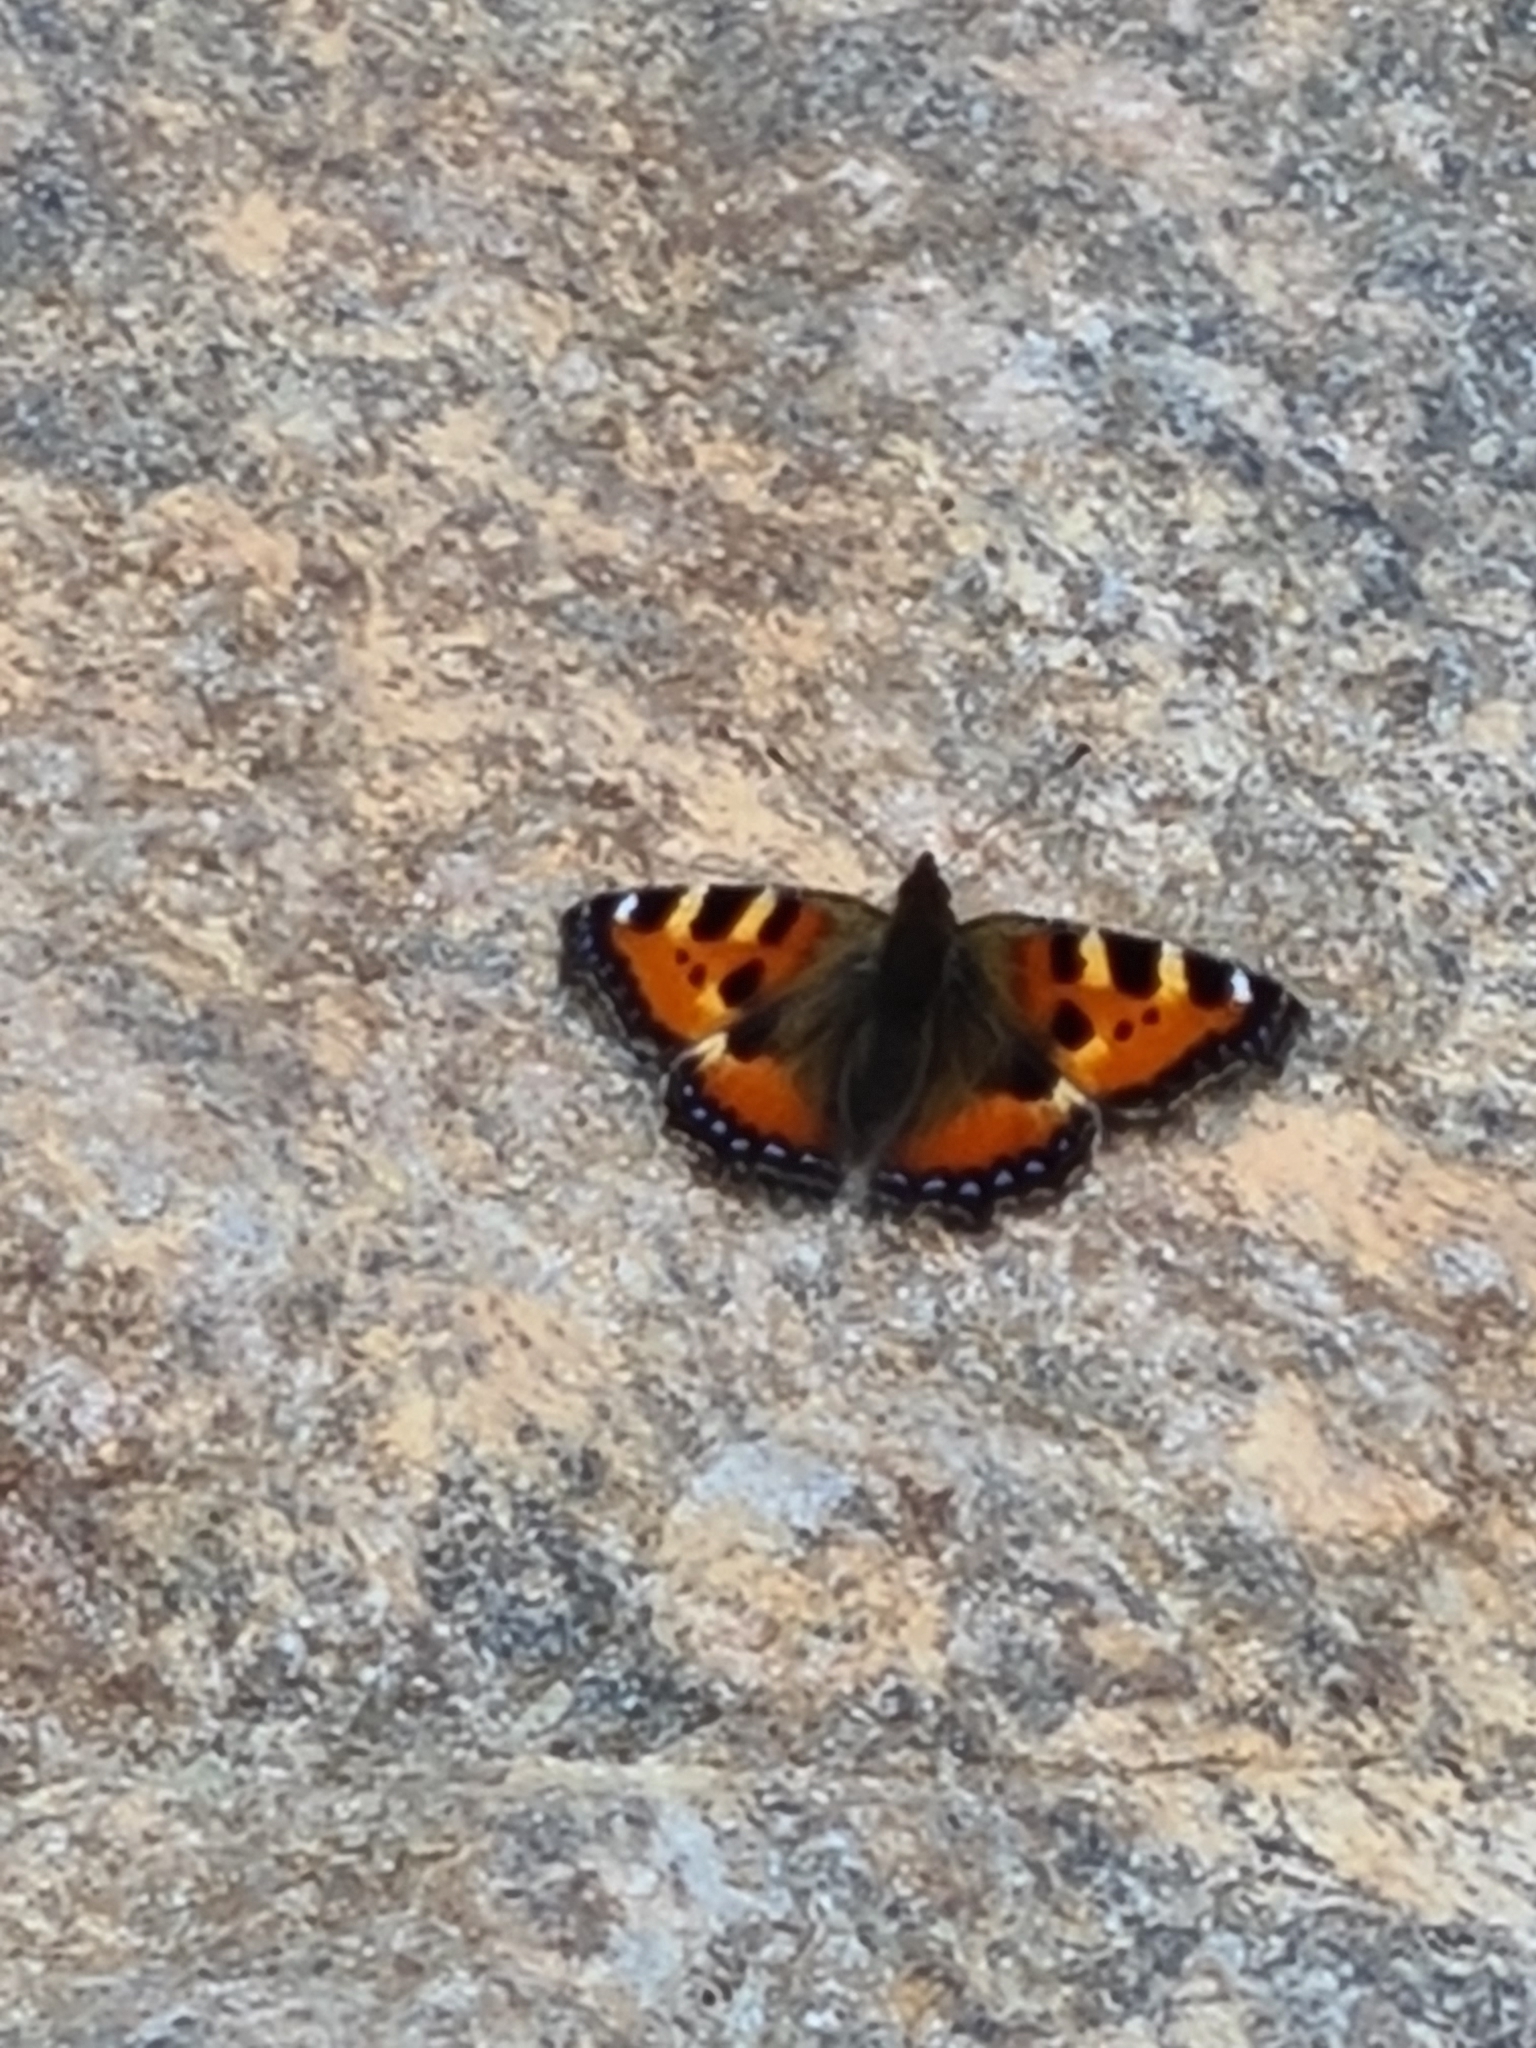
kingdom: Animalia
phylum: Arthropoda
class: Insecta
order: Lepidoptera
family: Nymphalidae
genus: Aglais
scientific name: Aglais urticae
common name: Small tortoiseshell
